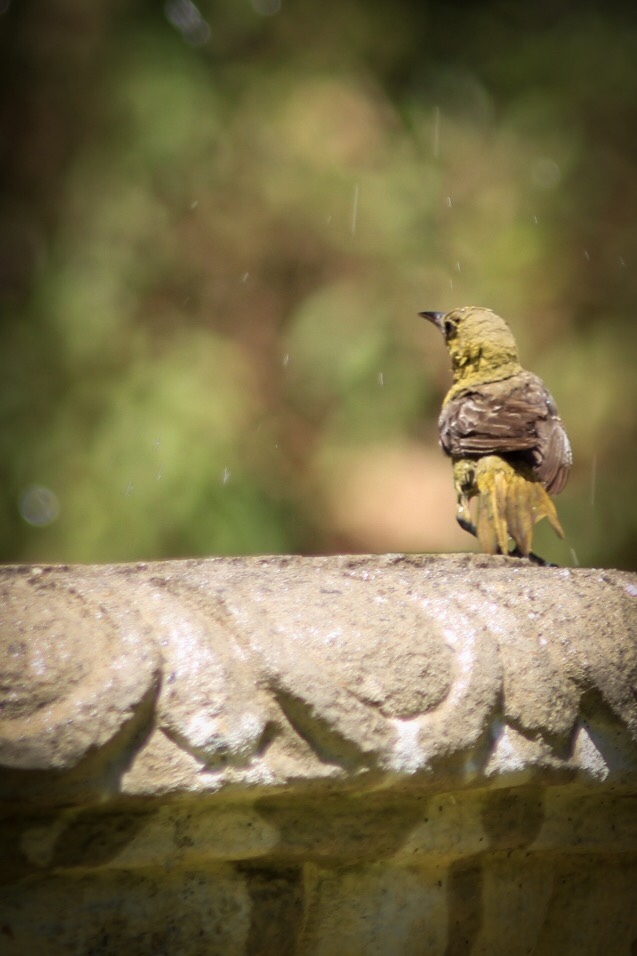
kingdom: Animalia
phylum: Chordata
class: Aves
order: Passeriformes
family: Icteridae
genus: Icterus
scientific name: Icterus cucullatus
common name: Hooded oriole
